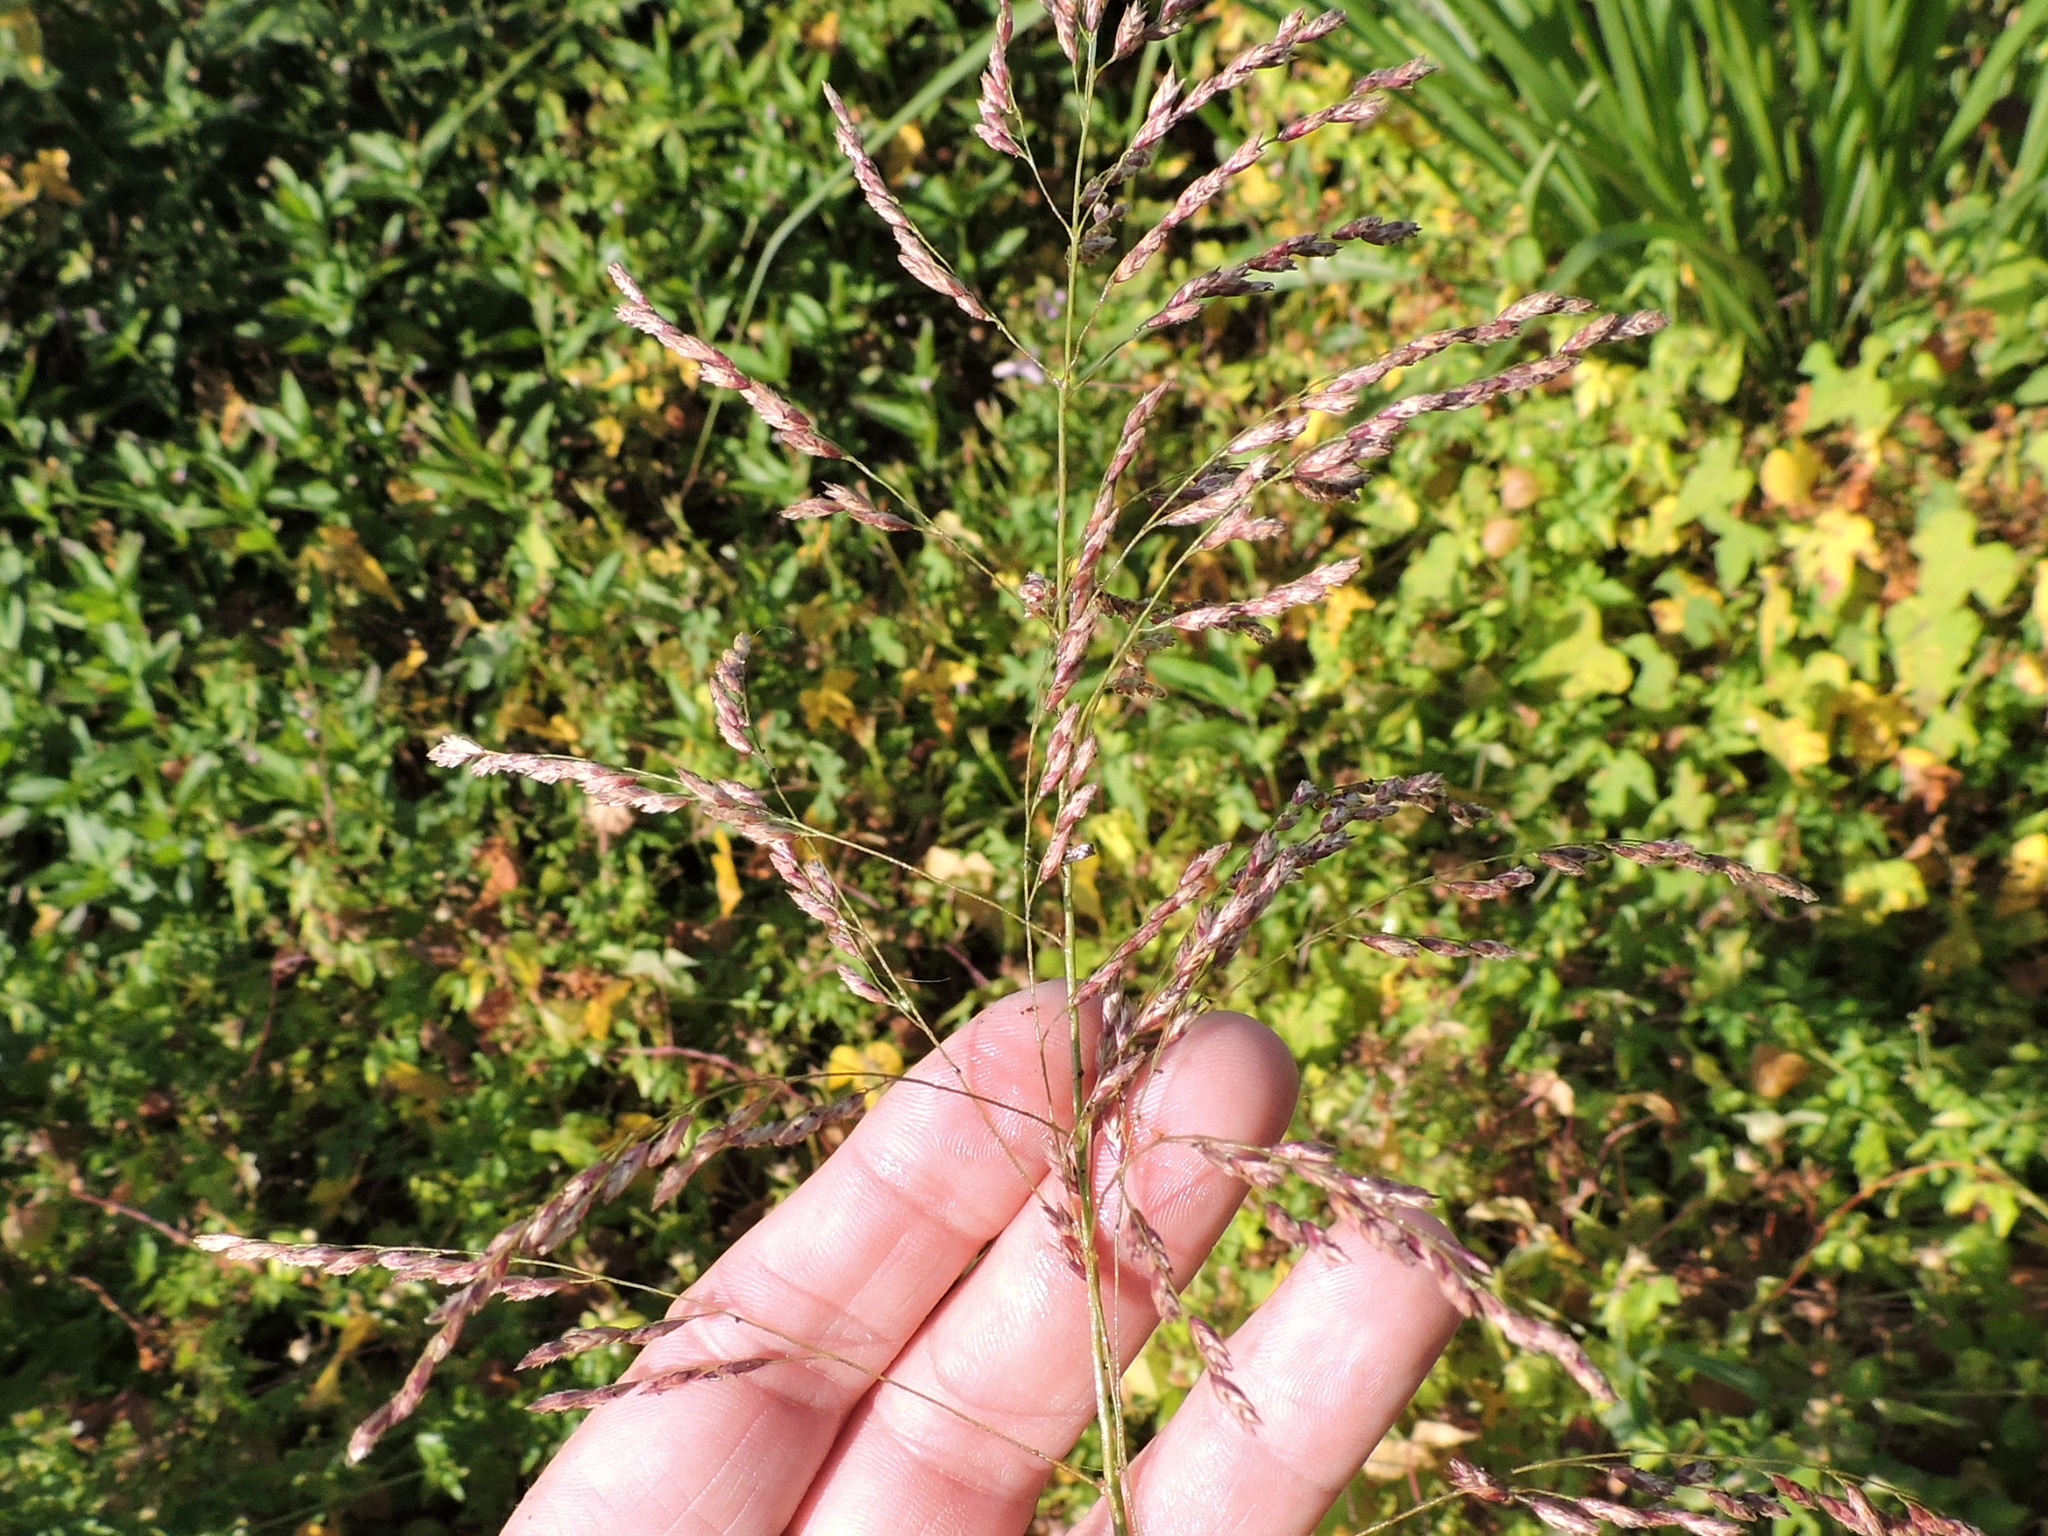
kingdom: Plantae
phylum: Tracheophyta
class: Liliopsida
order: Poales
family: Poaceae
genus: Tridens
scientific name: Tridens flavus
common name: Purpletop
